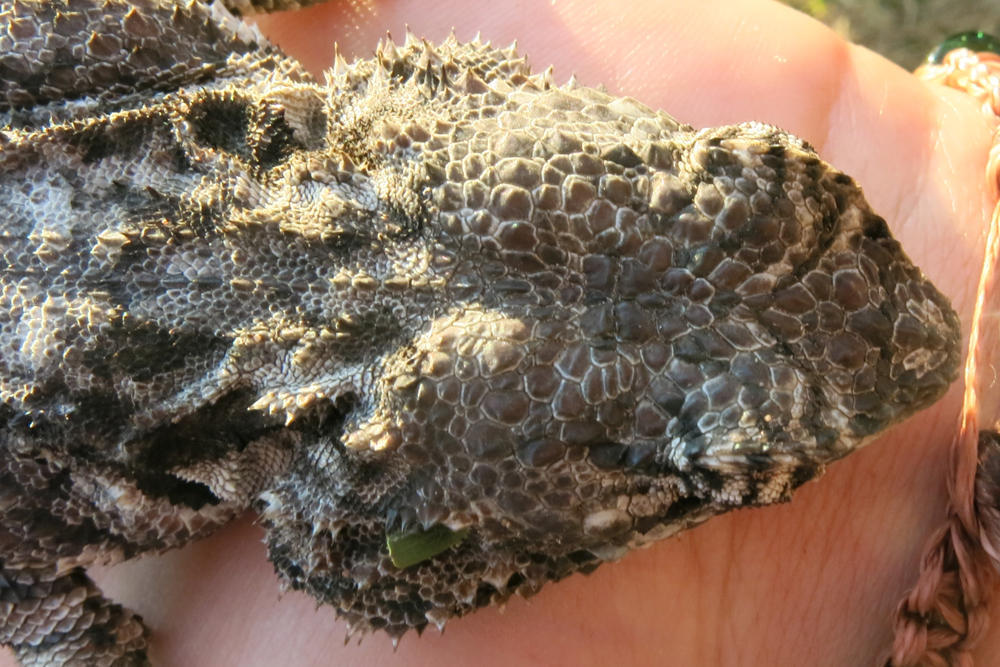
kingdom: Animalia
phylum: Chordata
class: Squamata
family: Agamidae
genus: Acanthocercus
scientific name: Acanthocercus atricollis
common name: Southern tree agama
